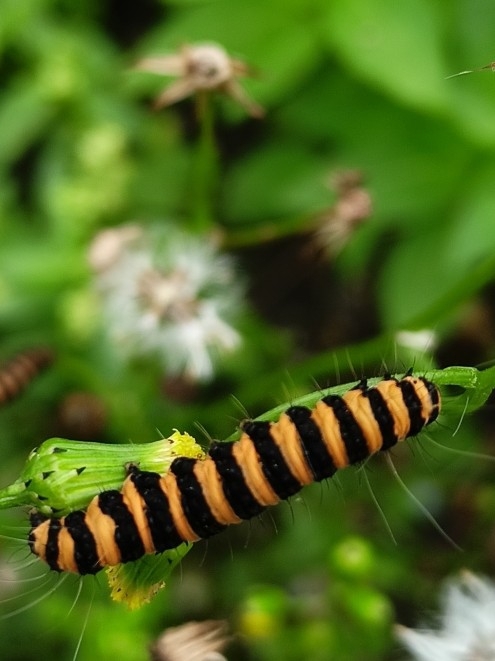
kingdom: Animalia
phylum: Arthropoda
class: Insecta
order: Lepidoptera
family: Erebidae
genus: Tyria
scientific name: Tyria jacobaeae
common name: Cinnabar
